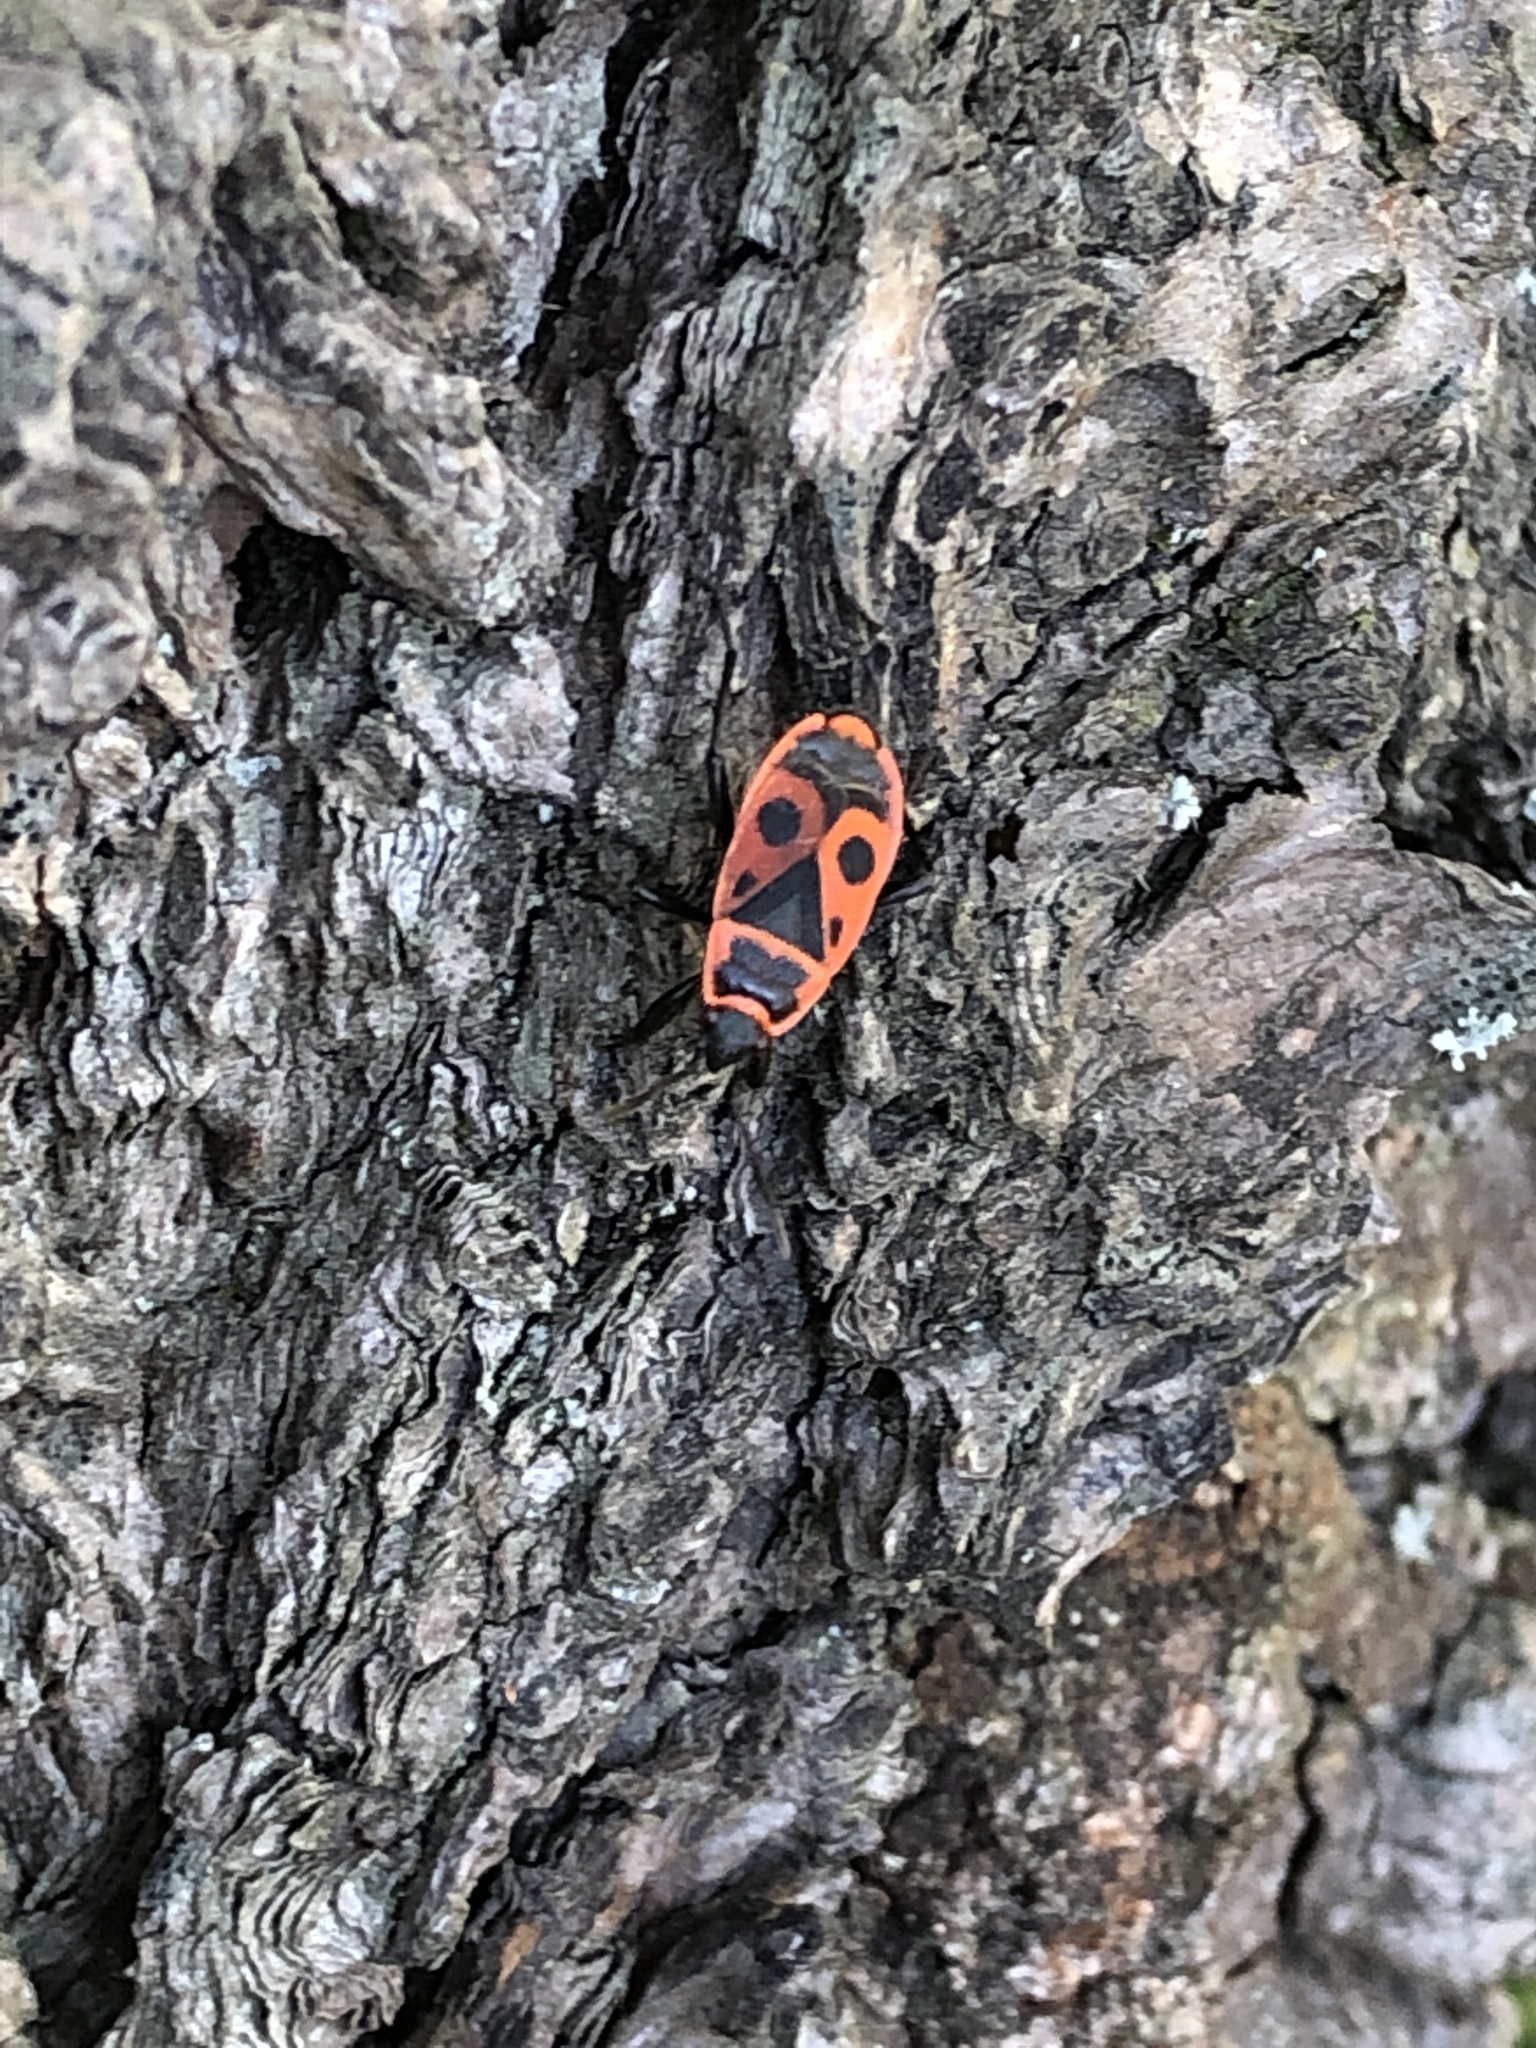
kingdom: Animalia
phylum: Arthropoda
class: Insecta
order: Hemiptera
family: Pyrrhocoridae
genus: Pyrrhocoris
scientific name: Pyrrhocoris apterus
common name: Firebug
